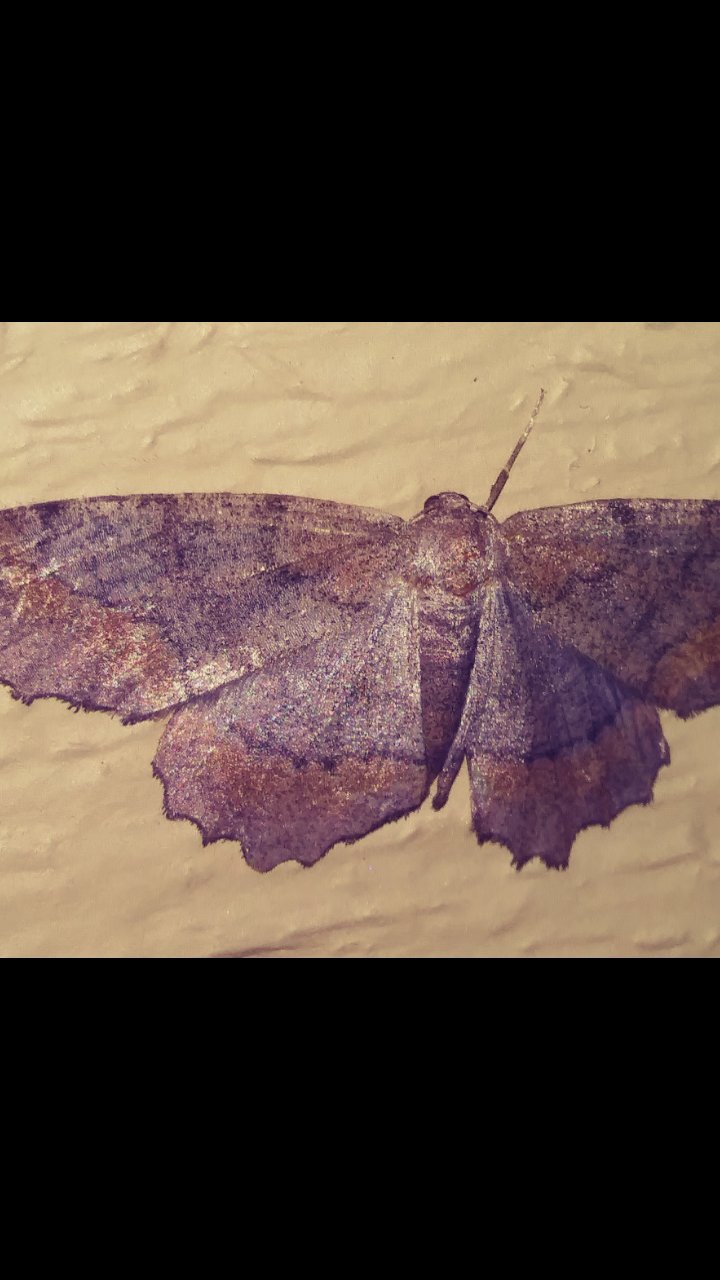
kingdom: Animalia
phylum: Arthropoda
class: Insecta
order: Lepidoptera
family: Geometridae
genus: Hypagyrtis
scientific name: Hypagyrtis esther
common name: Esther moth
